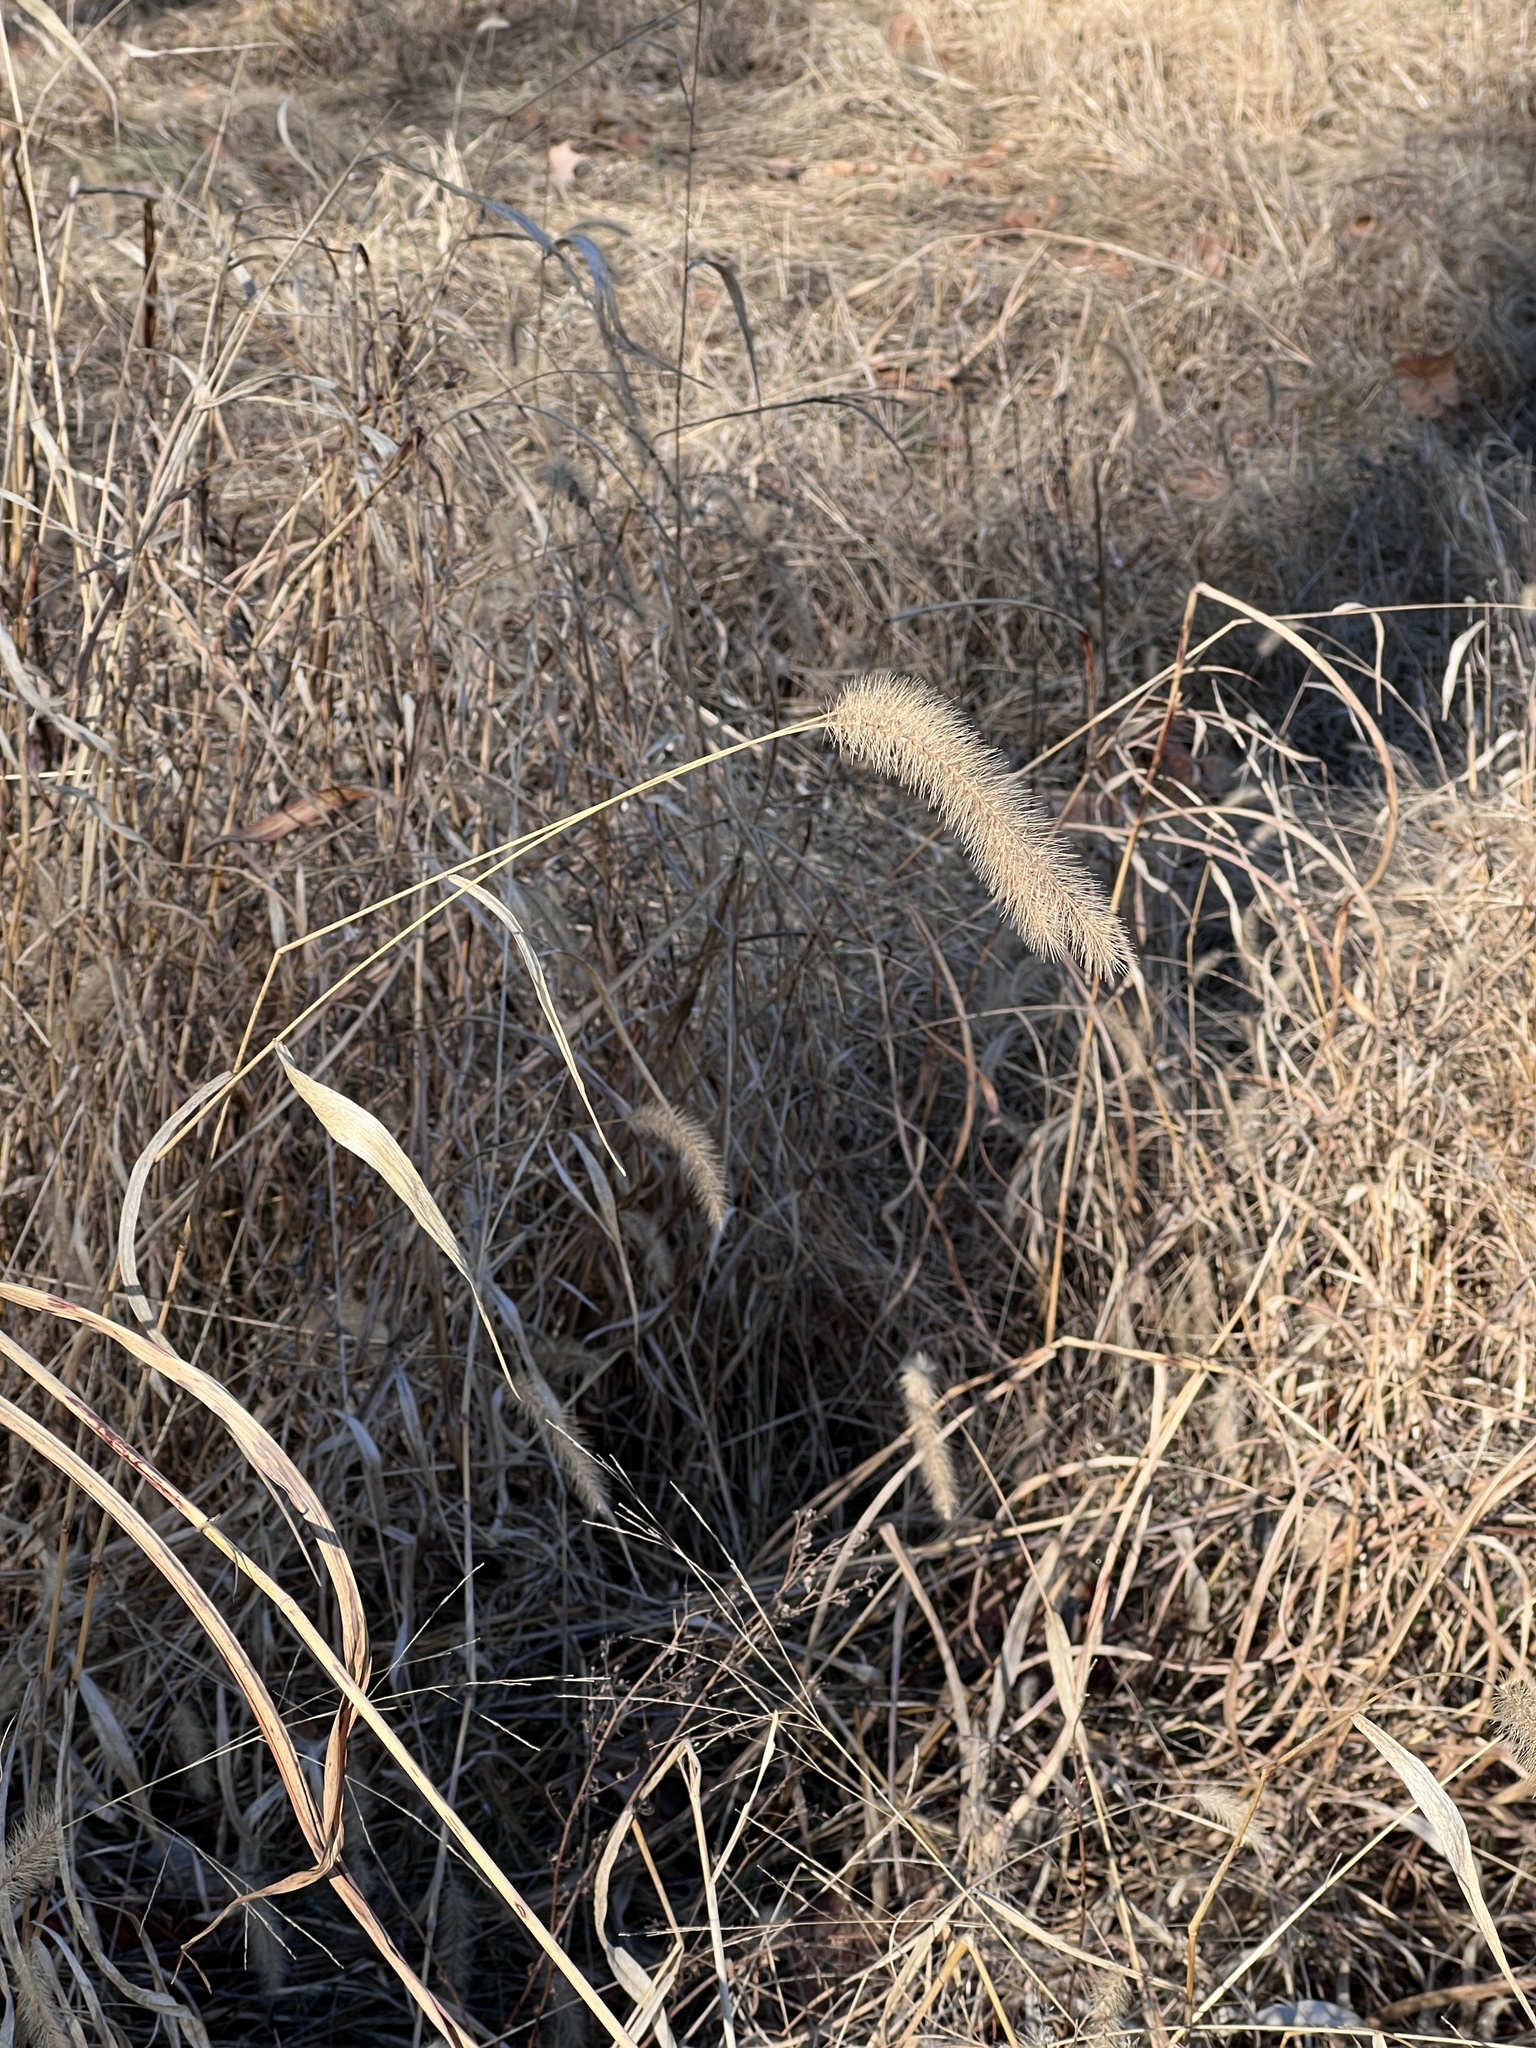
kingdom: Plantae
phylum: Tracheophyta
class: Liliopsida
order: Poales
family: Poaceae
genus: Setaria
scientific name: Setaria faberi
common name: Nodding bristle-grass
